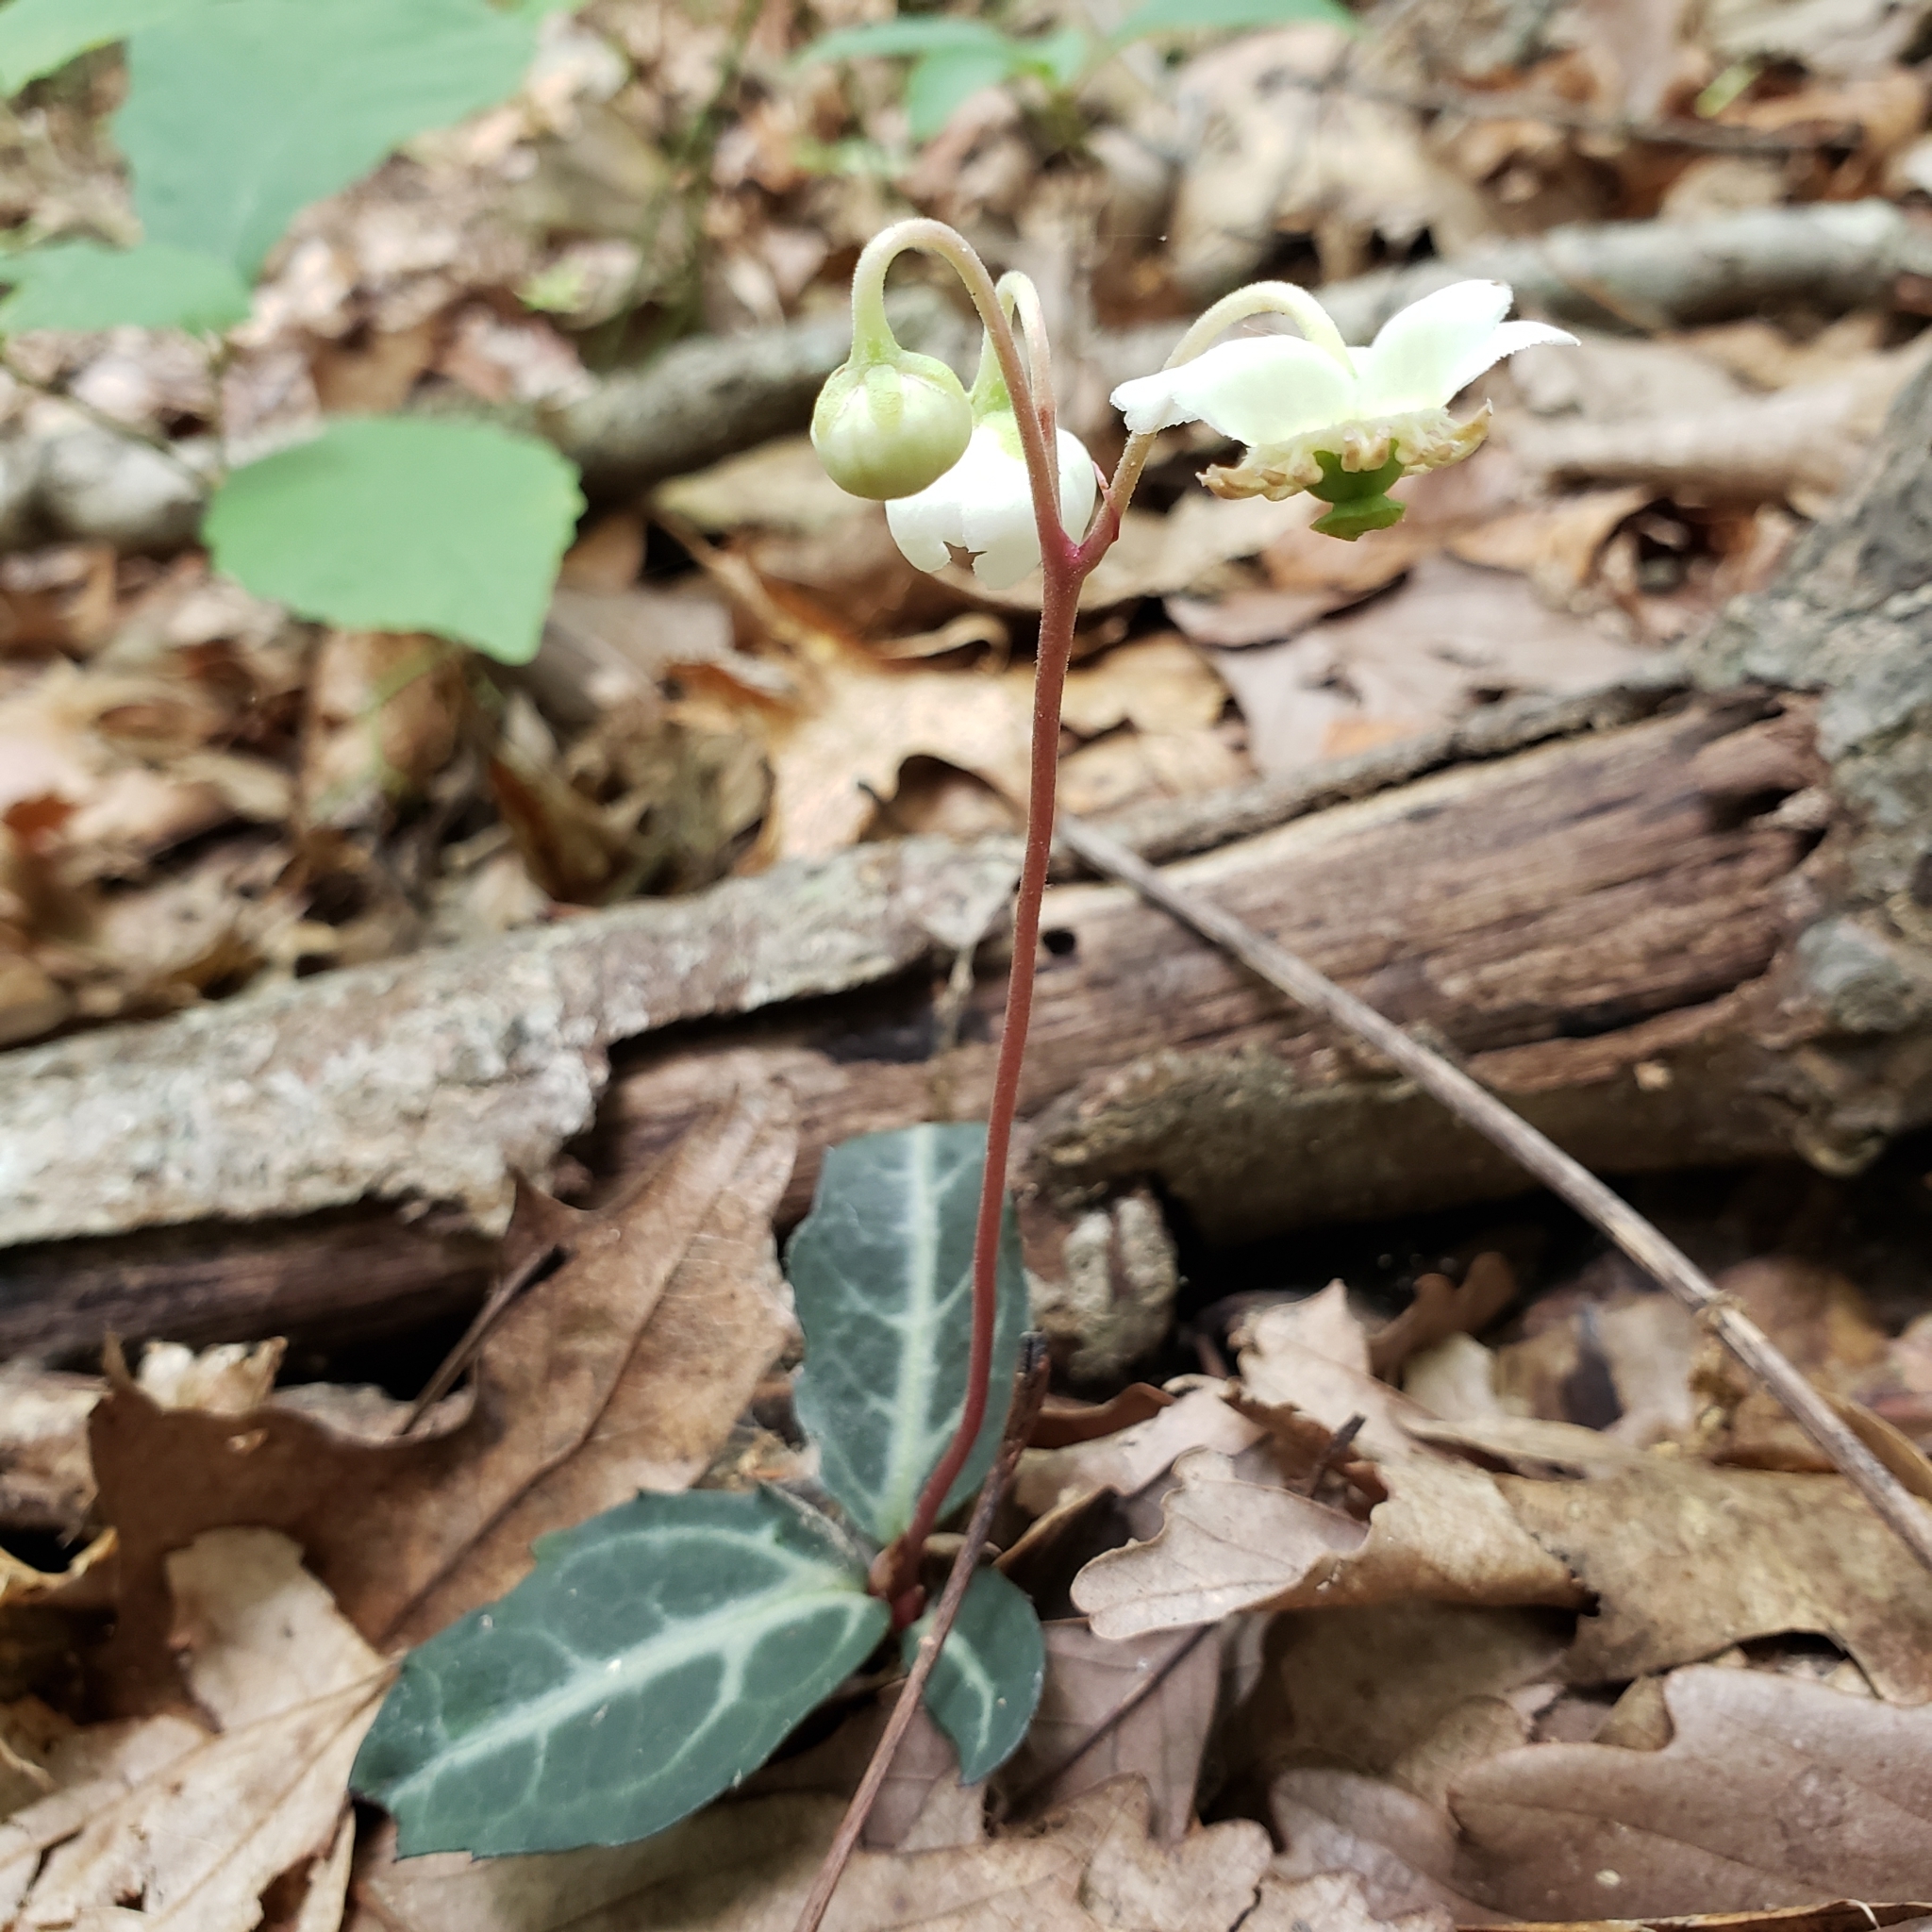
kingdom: Plantae
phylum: Tracheophyta
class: Magnoliopsida
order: Ericales
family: Ericaceae
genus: Chimaphila
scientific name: Chimaphila maculata
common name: Spotted pipsissewa
